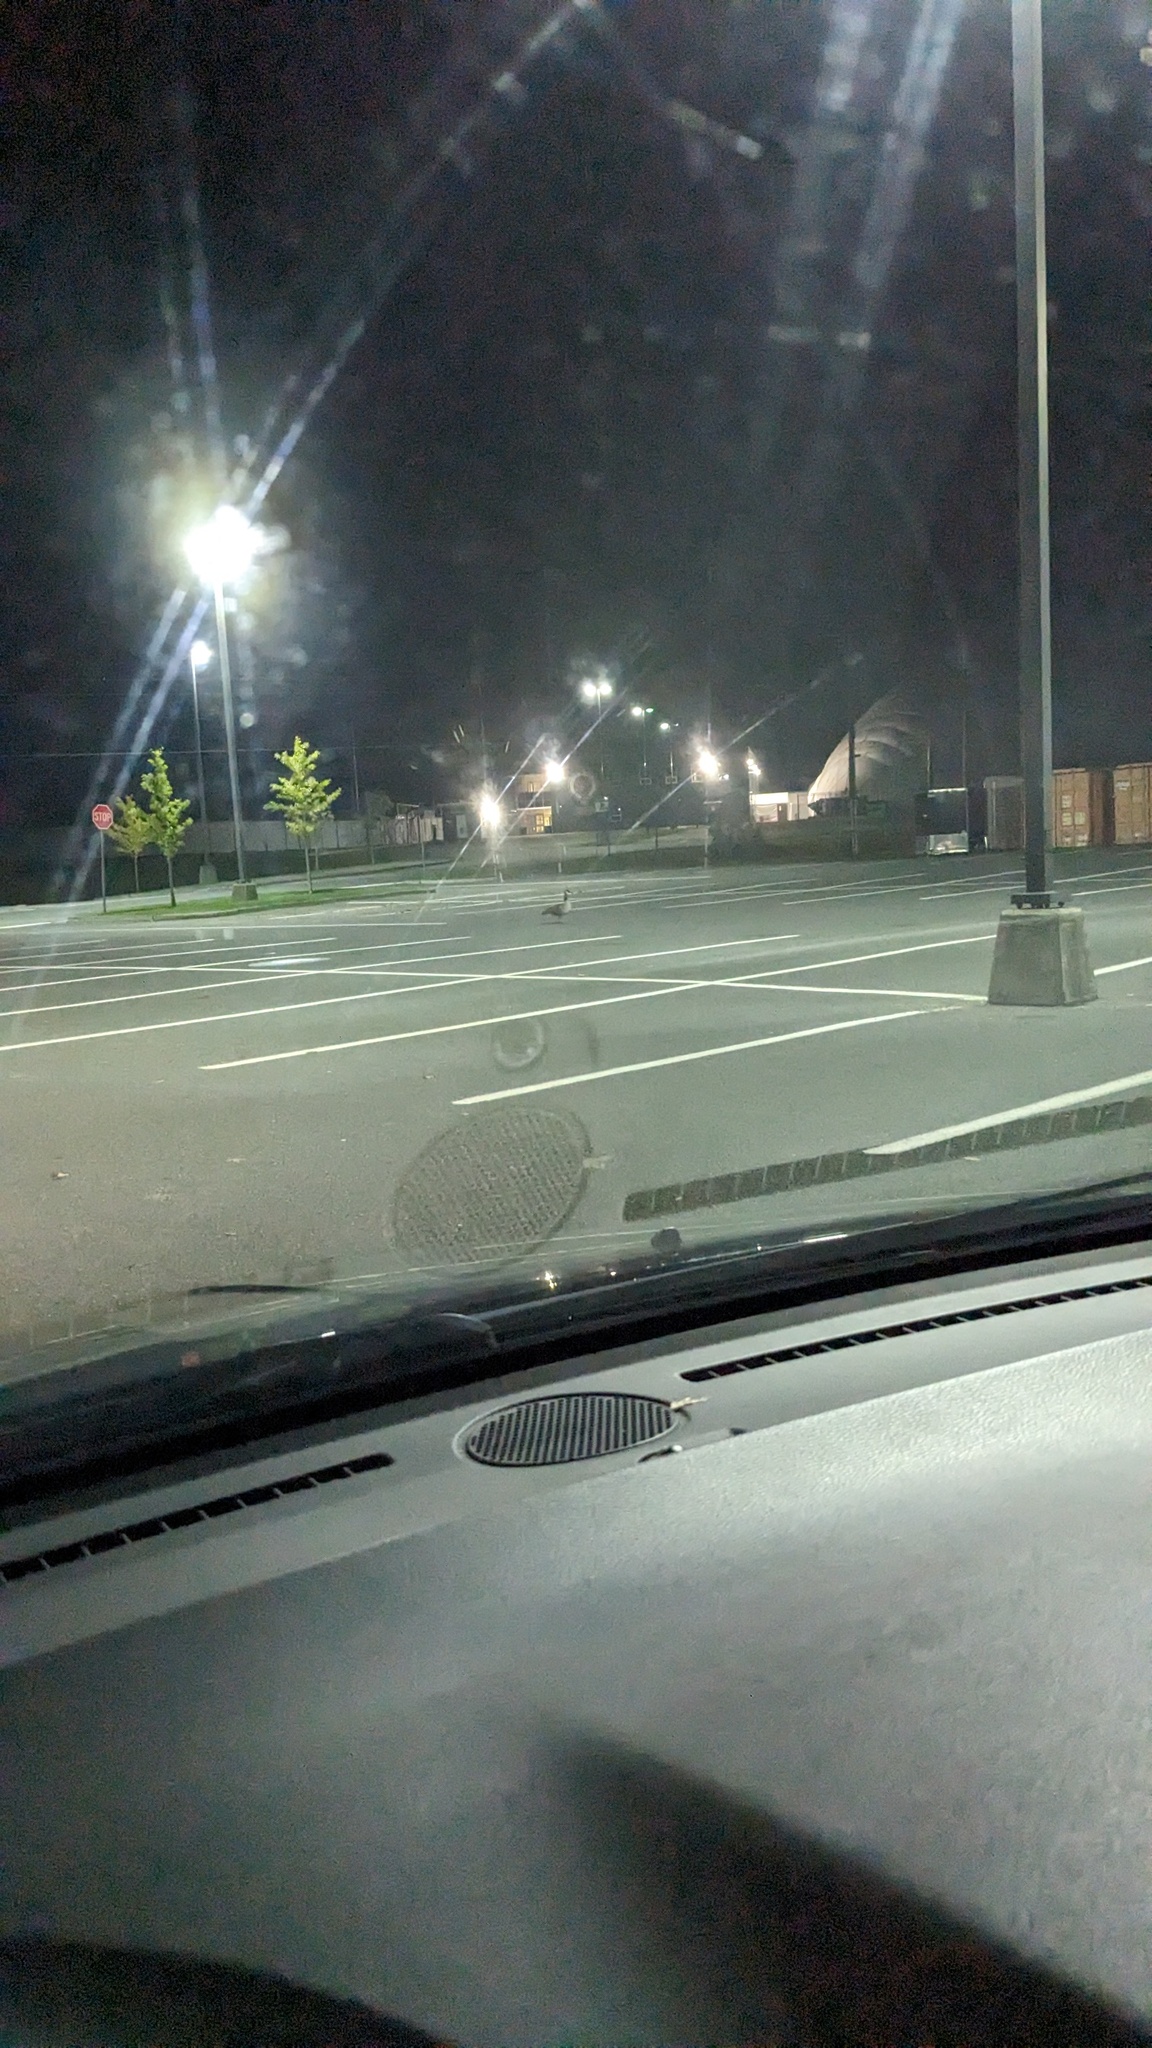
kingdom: Animalia
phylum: Chordata
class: Aves
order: Anseriformes
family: Anatidae
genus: Branta
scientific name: Branta canadensis
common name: Canada goose
